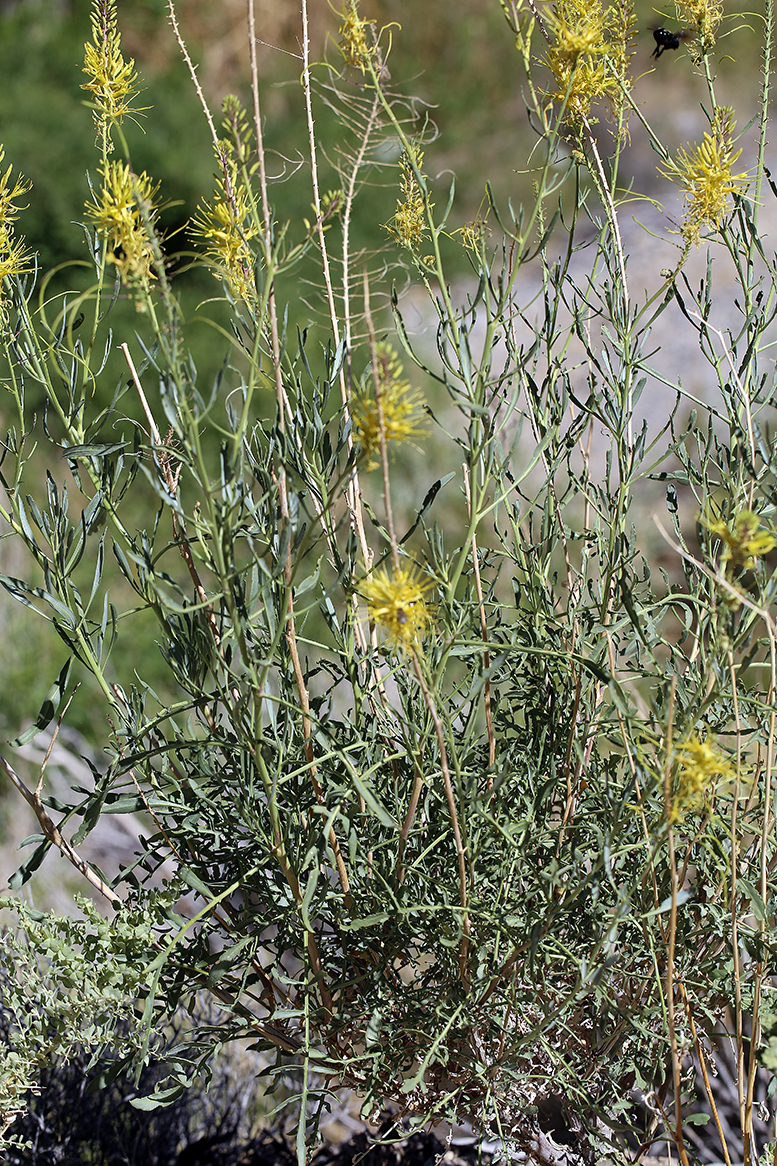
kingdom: Plantae
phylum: Tracheophyta
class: Magnoliopsida
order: Brassicales
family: Brassicaceae
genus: Stanleya
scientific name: Stanleya pinnata
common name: Prince's-plume
